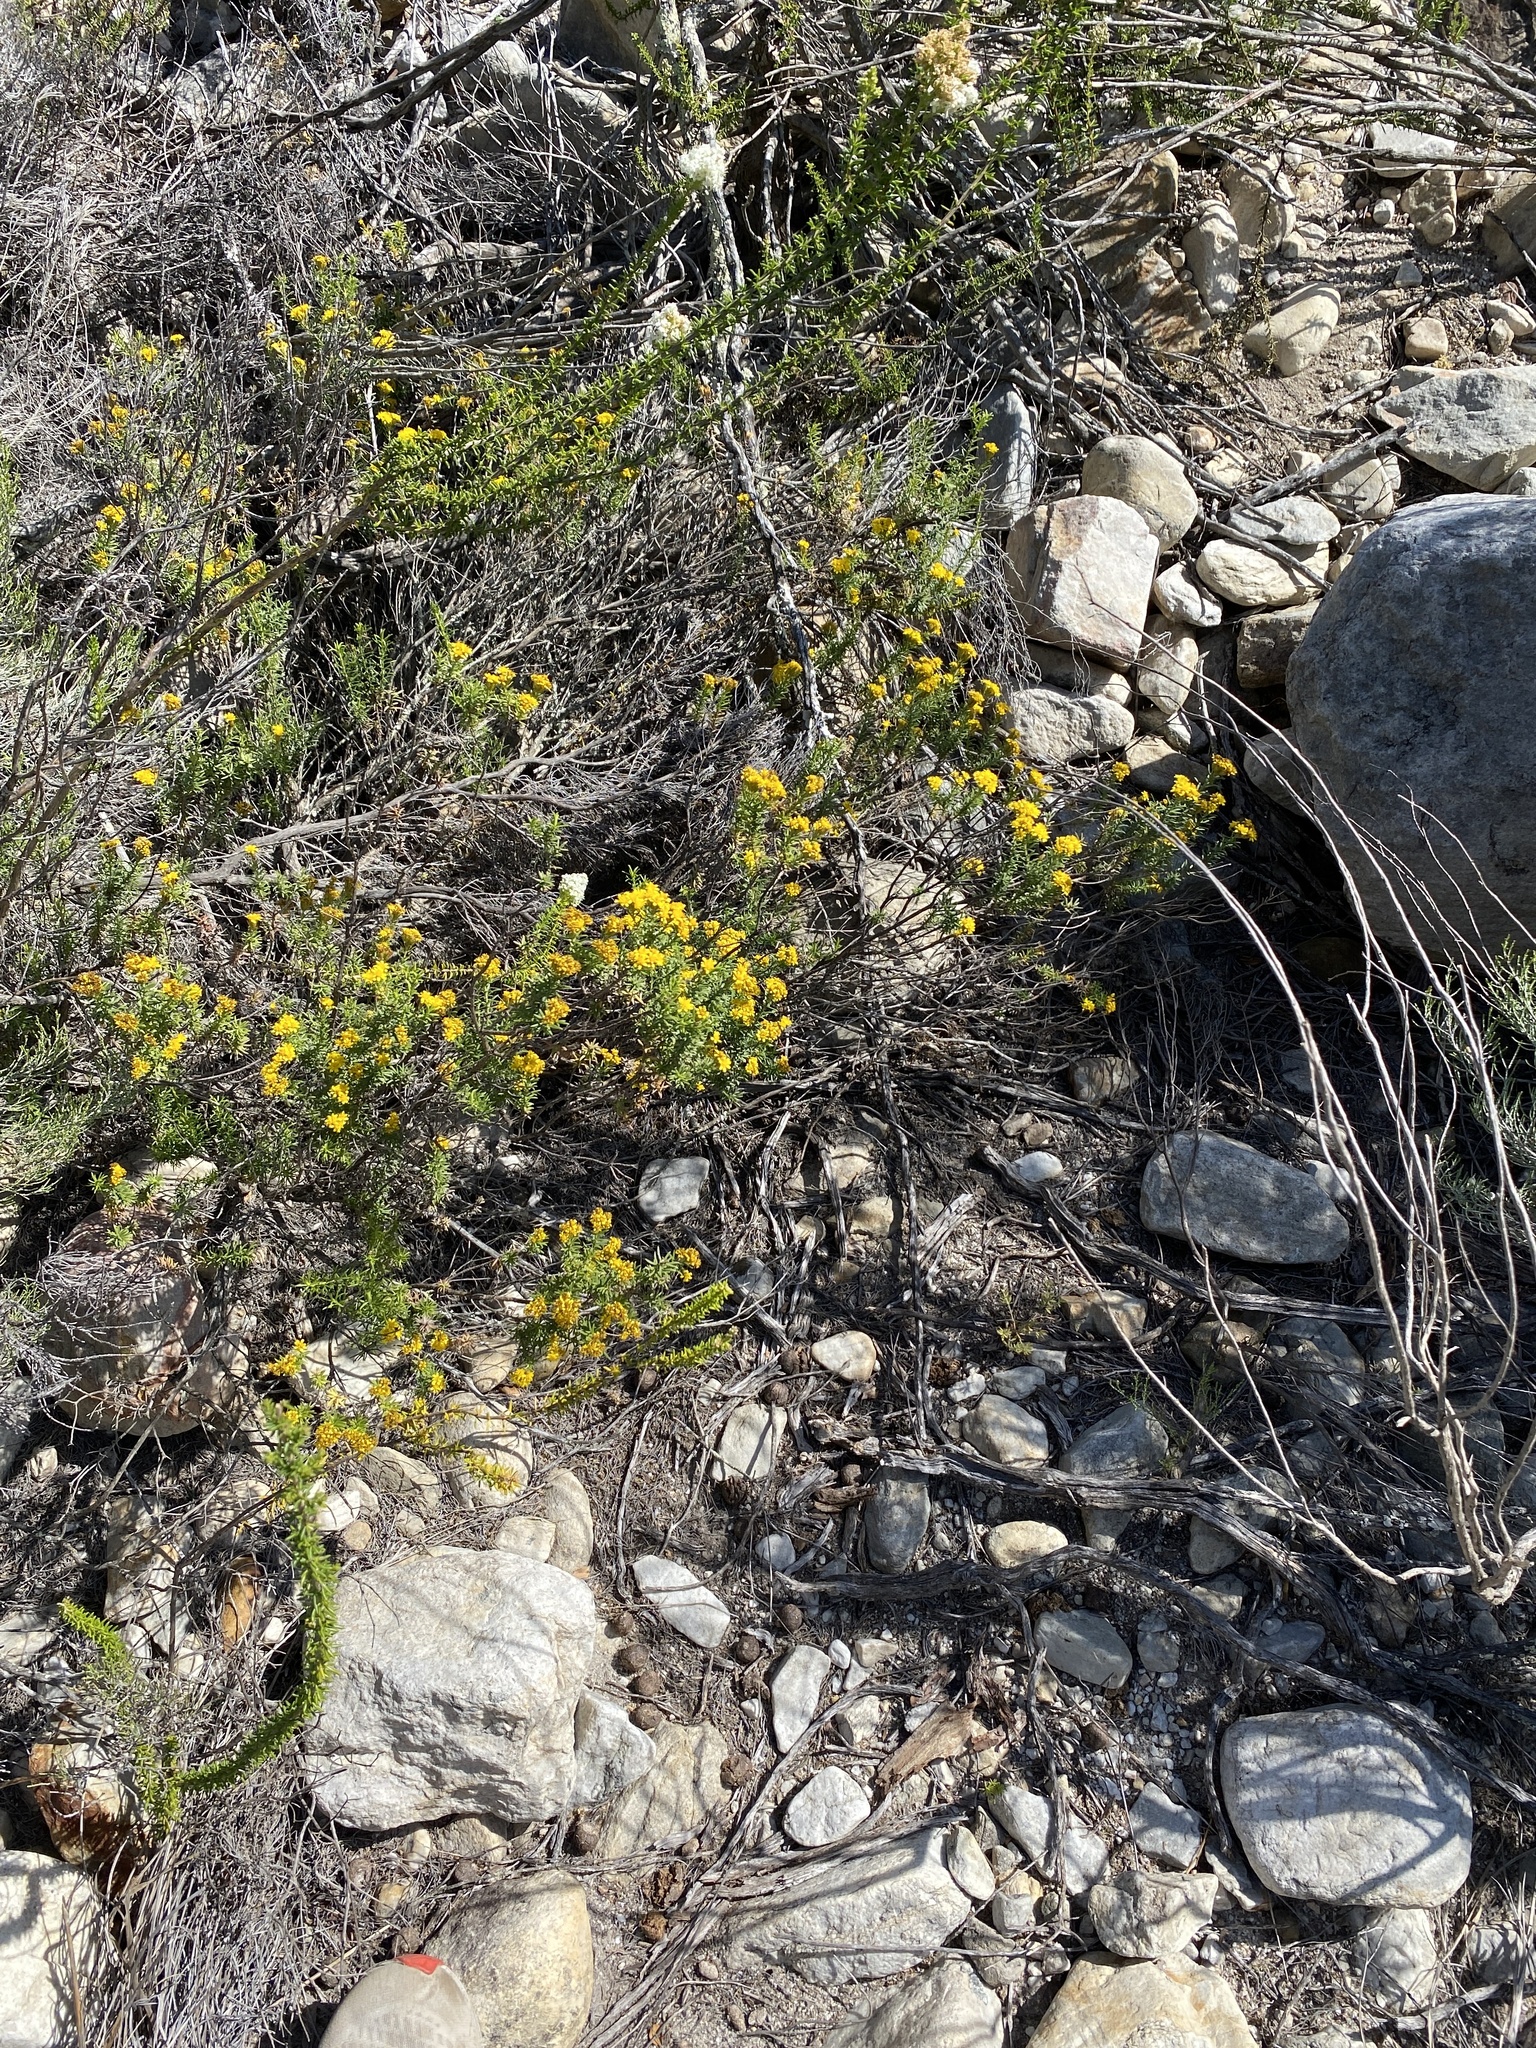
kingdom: Plantae
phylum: Tracheophyta
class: Magnoliopsida
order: Asterales
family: Asteraceae
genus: Oedera
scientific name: Oedera genistifolia
